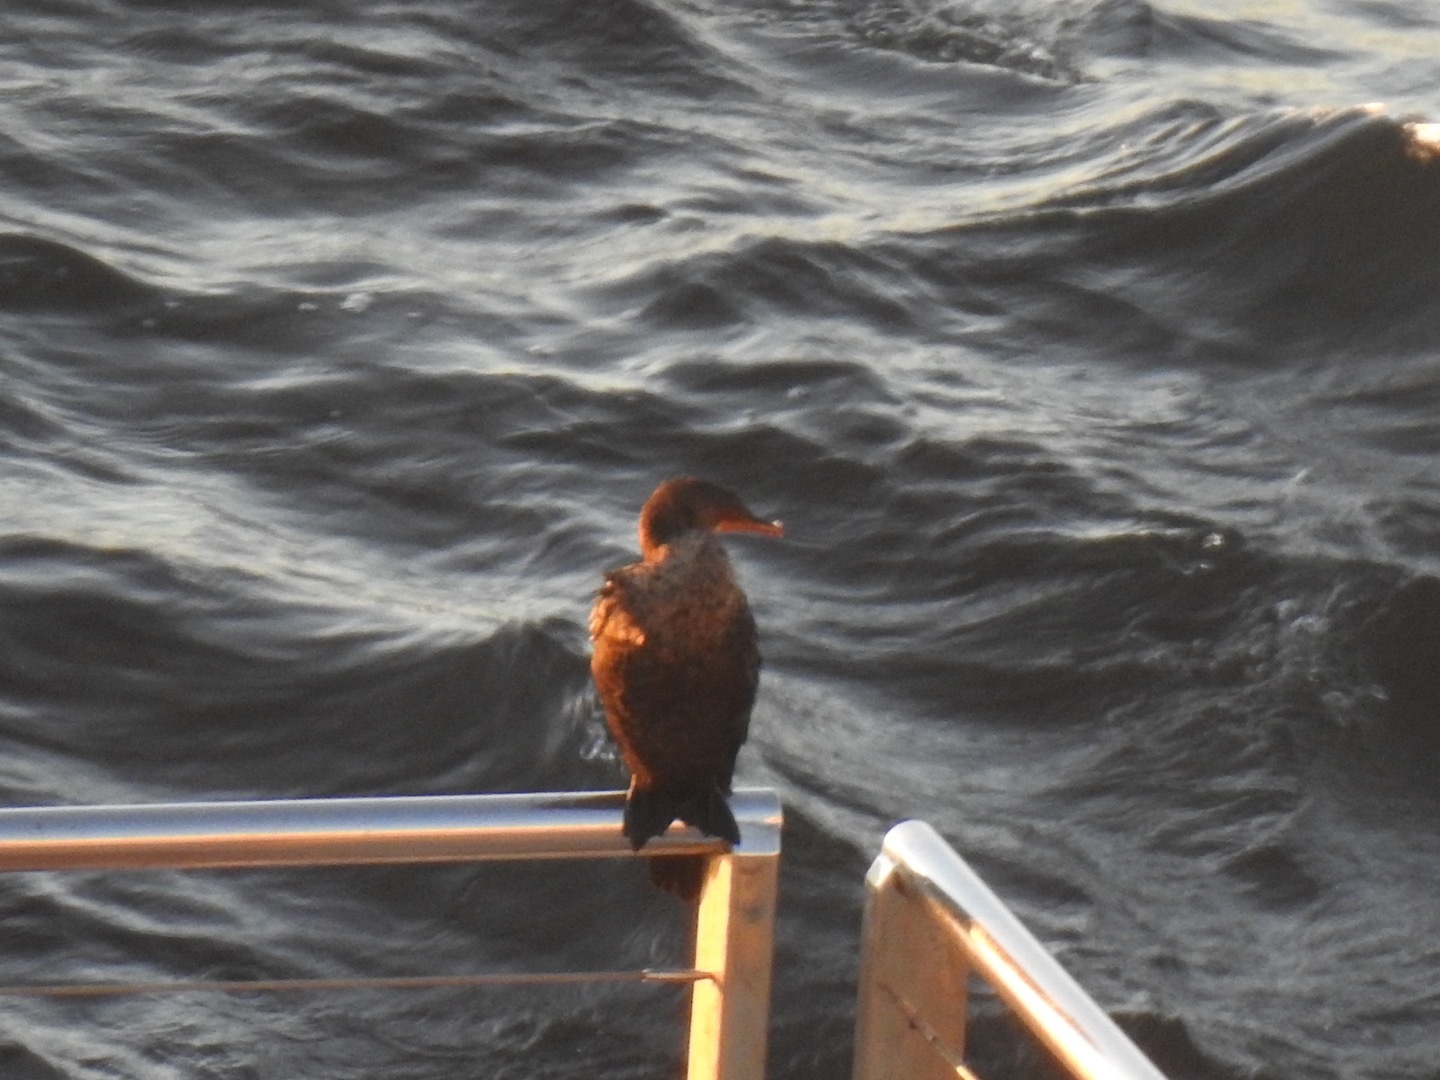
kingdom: Animalia
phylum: Chordata
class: Aves
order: Suliformes
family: Phalacrocoracidae
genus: Microcarbo
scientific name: Microcarbo coronatus
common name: Crowned cormorant
